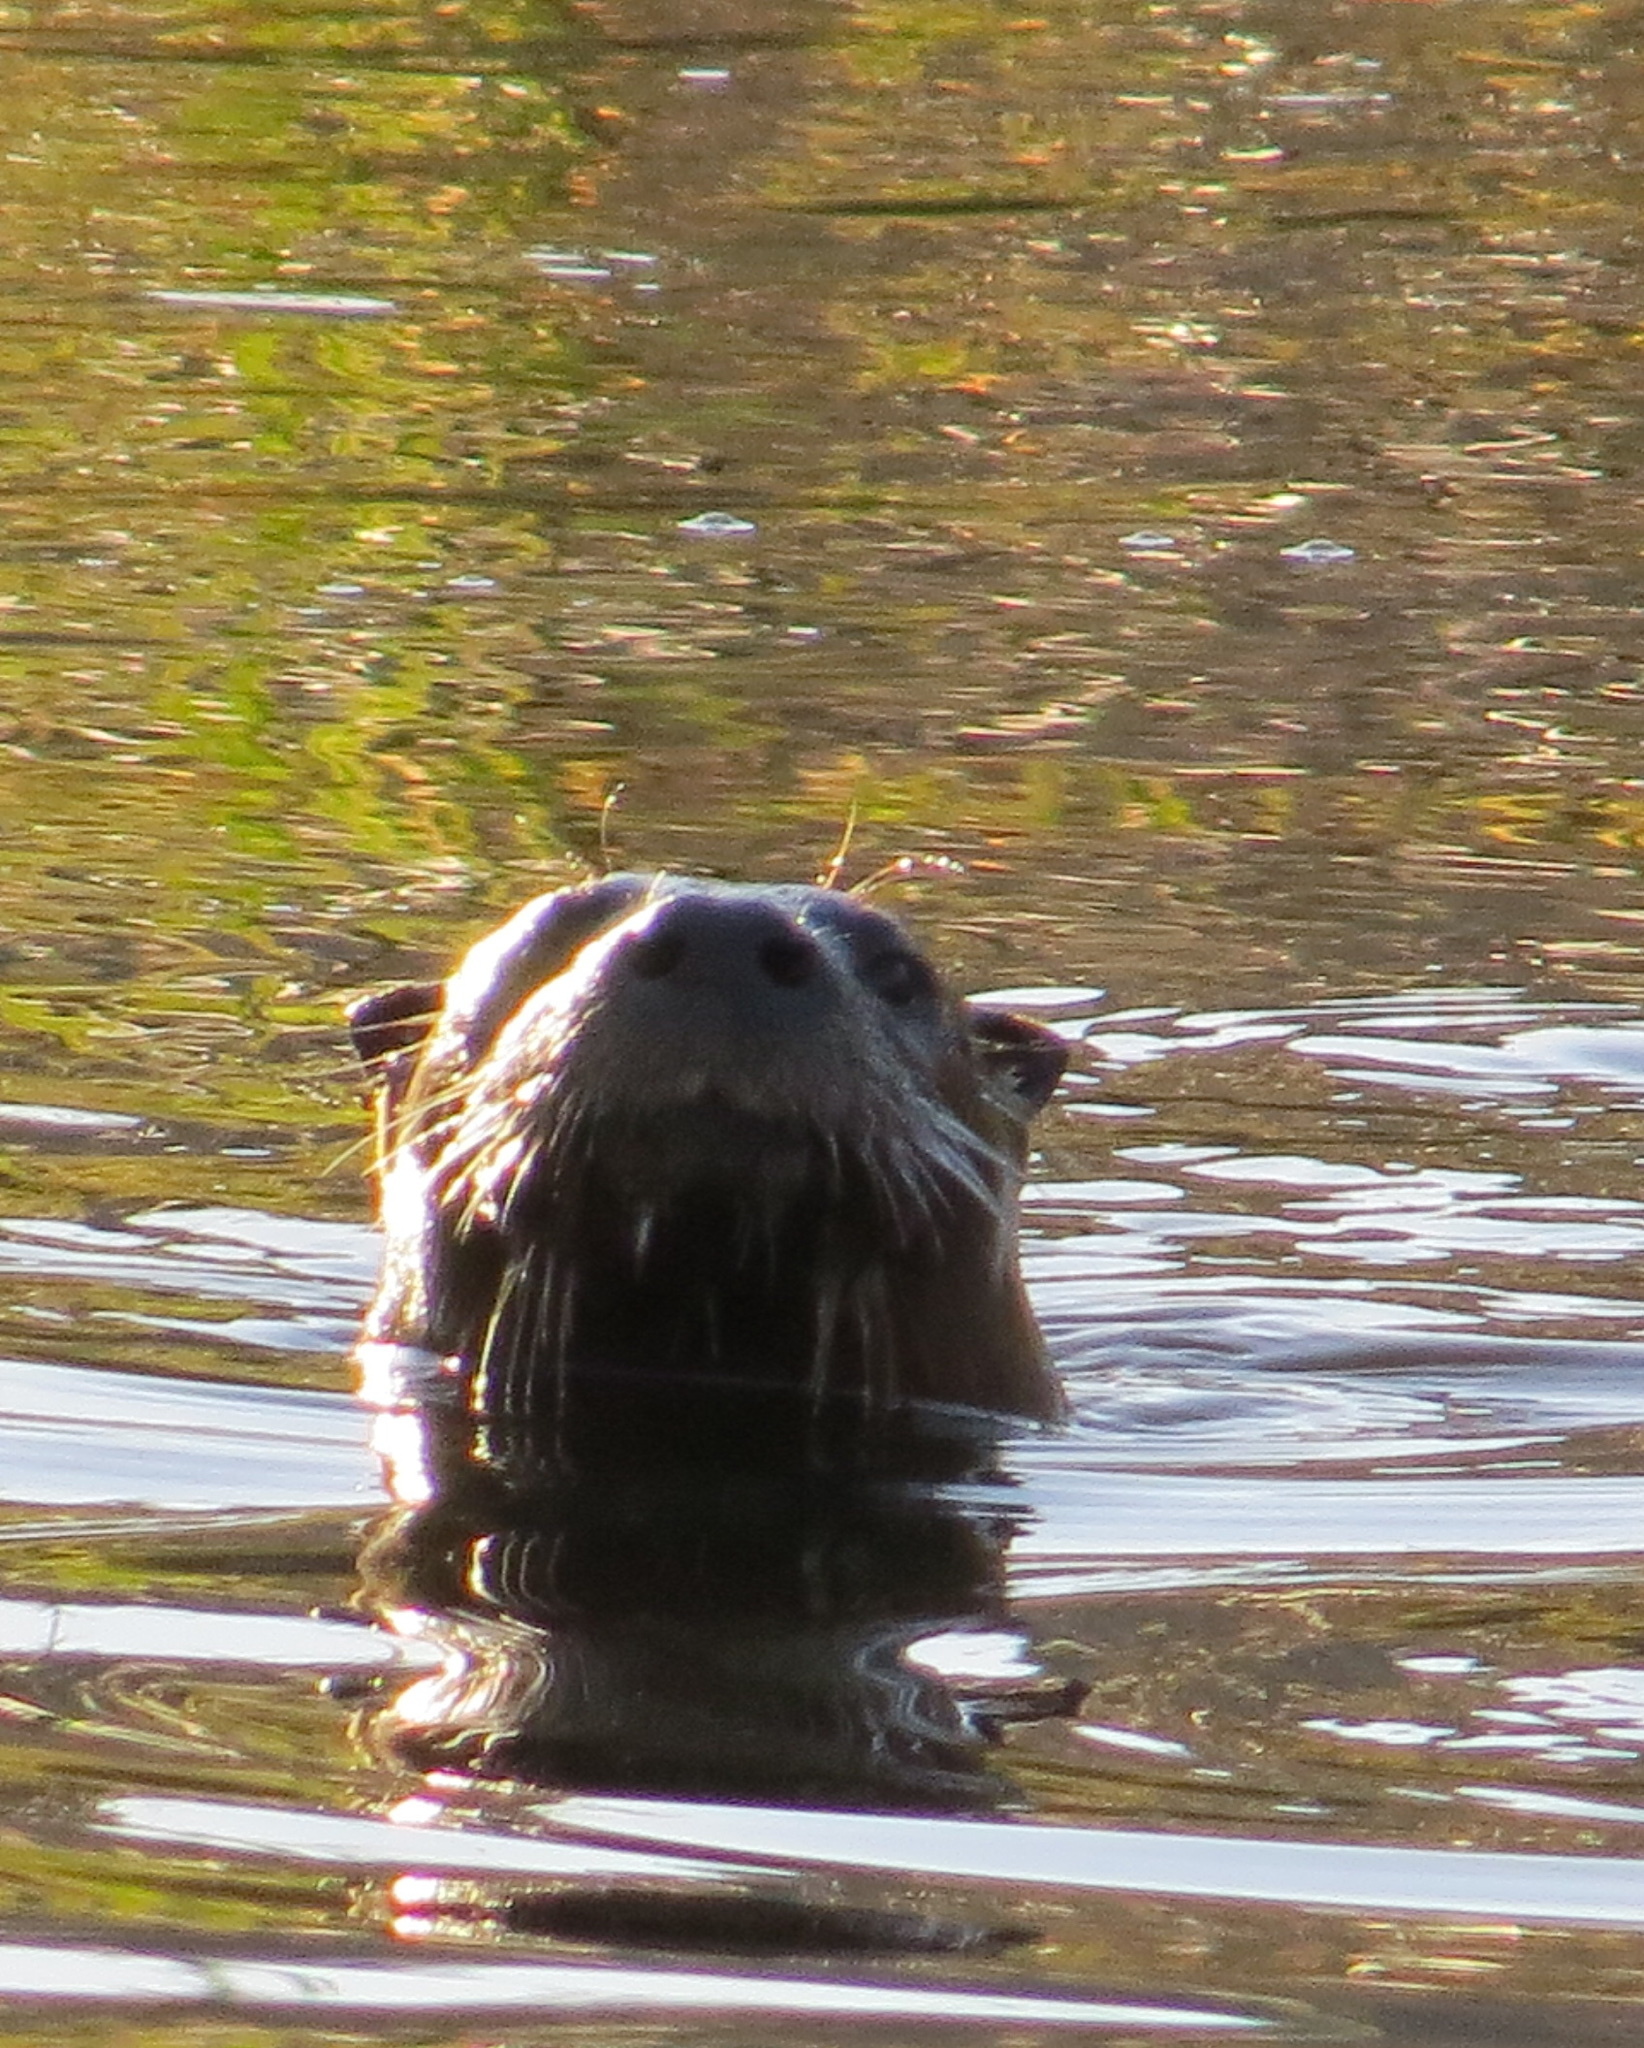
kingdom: Animalia
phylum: Chordata
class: Mammalia
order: Carnivora
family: Mustelidae
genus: Lontra
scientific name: Lontra canadensis
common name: North american river otter
